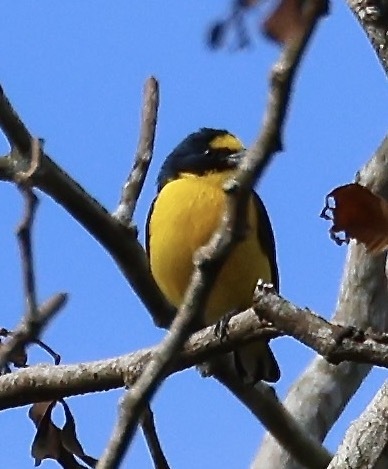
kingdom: Animalia
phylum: Chordata
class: Aves
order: Passeriformes
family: Fringillidae
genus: Euphonia
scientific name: Euphonia hirundinacea
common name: Yellow-throated euphonia
